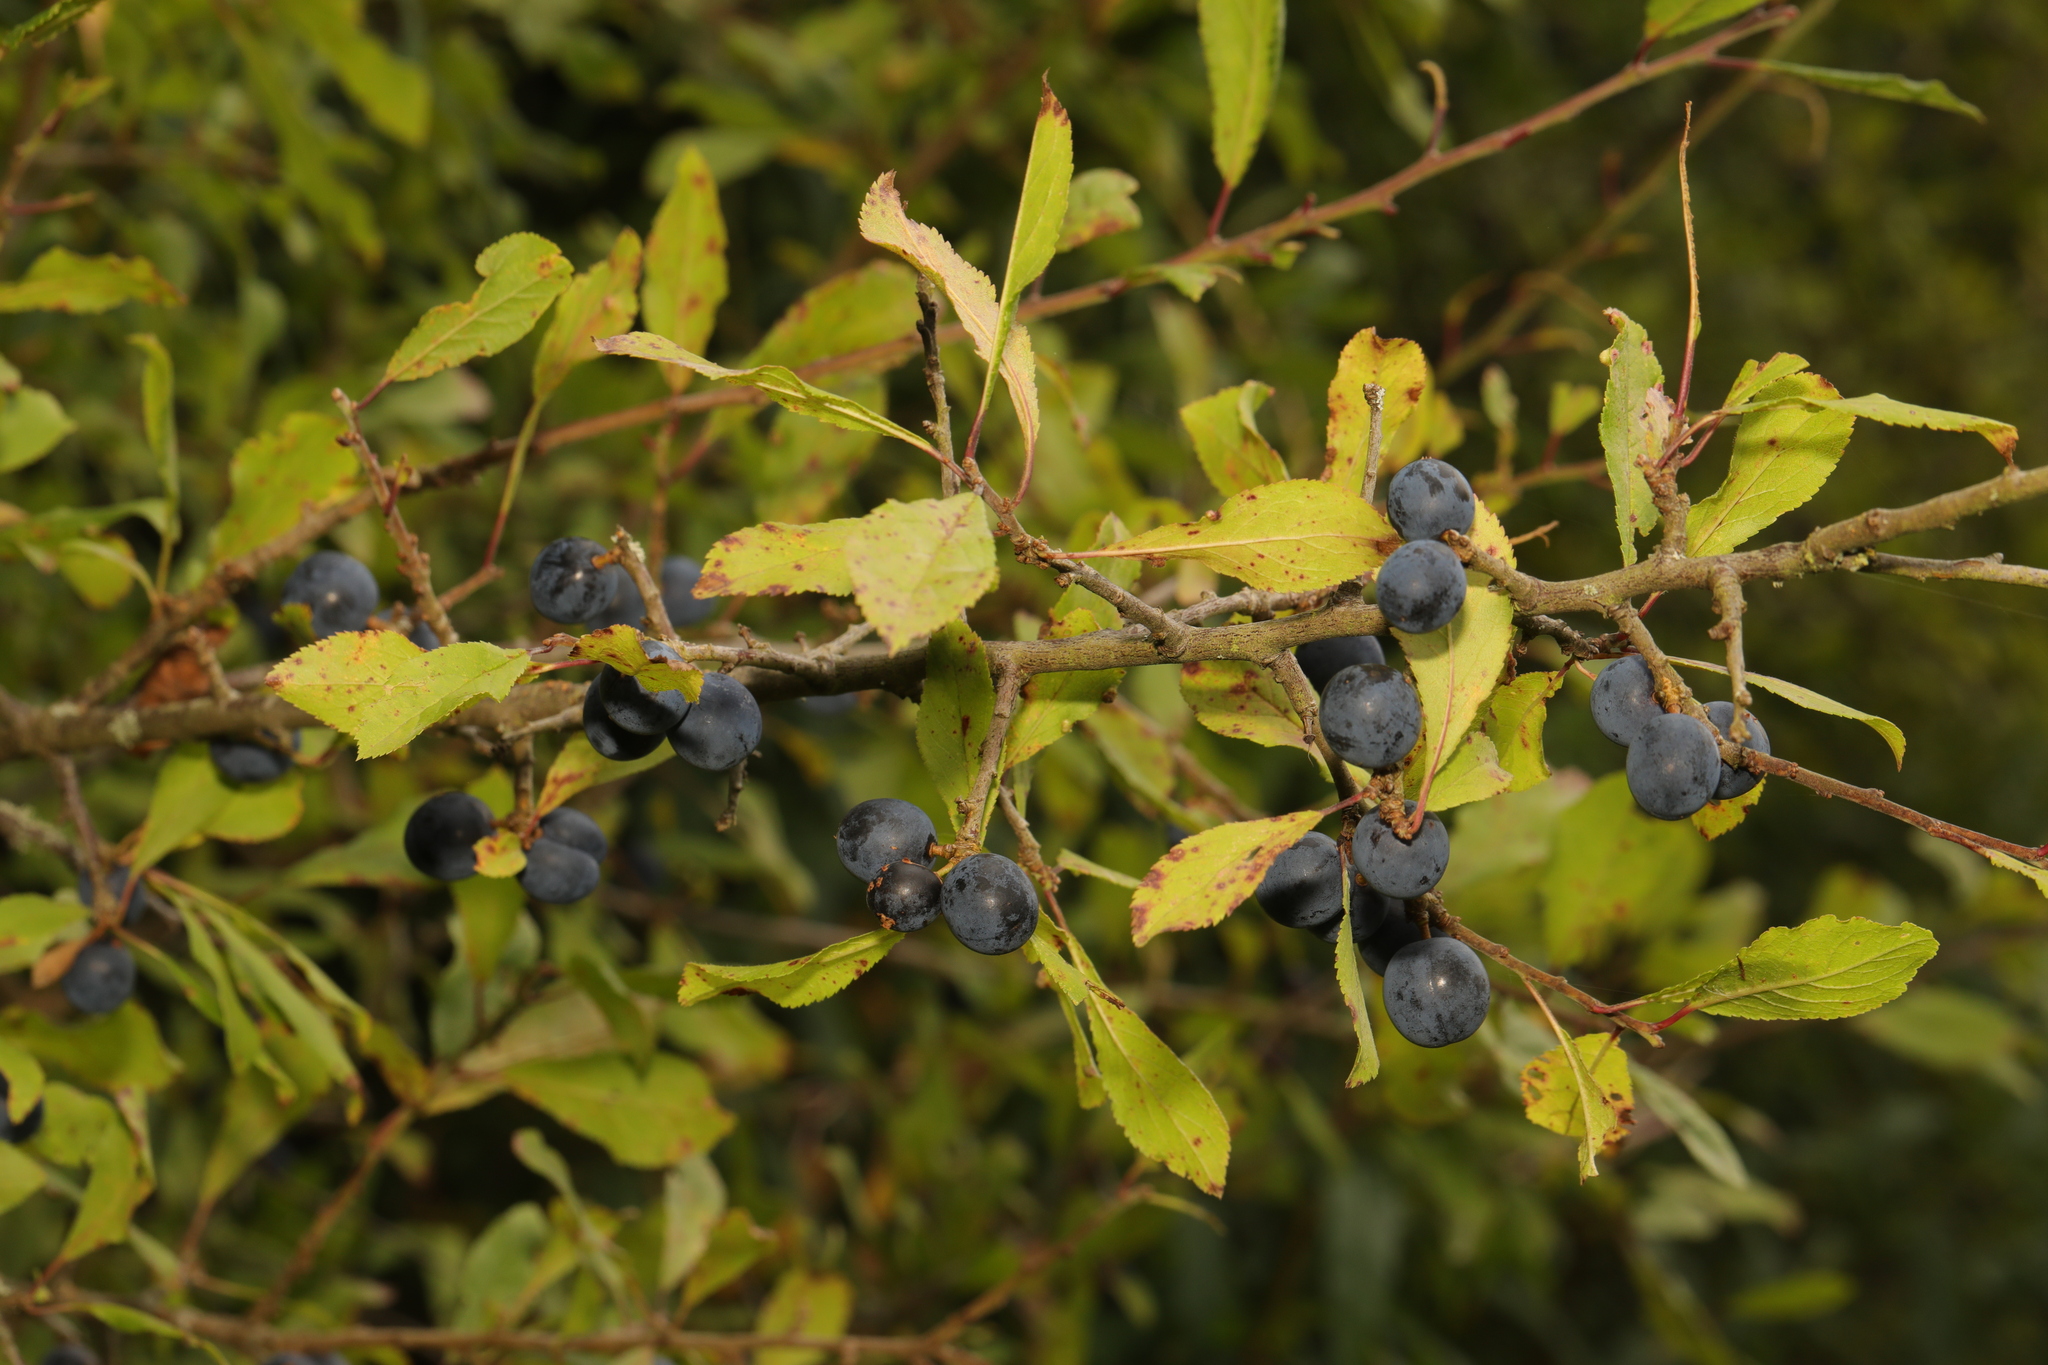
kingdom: Plantae
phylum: Tracheophyta
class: Magnoliopsida
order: Rosales
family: Rosaceae
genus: Prunus
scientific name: Prunus spinosa
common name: Blackthorn
